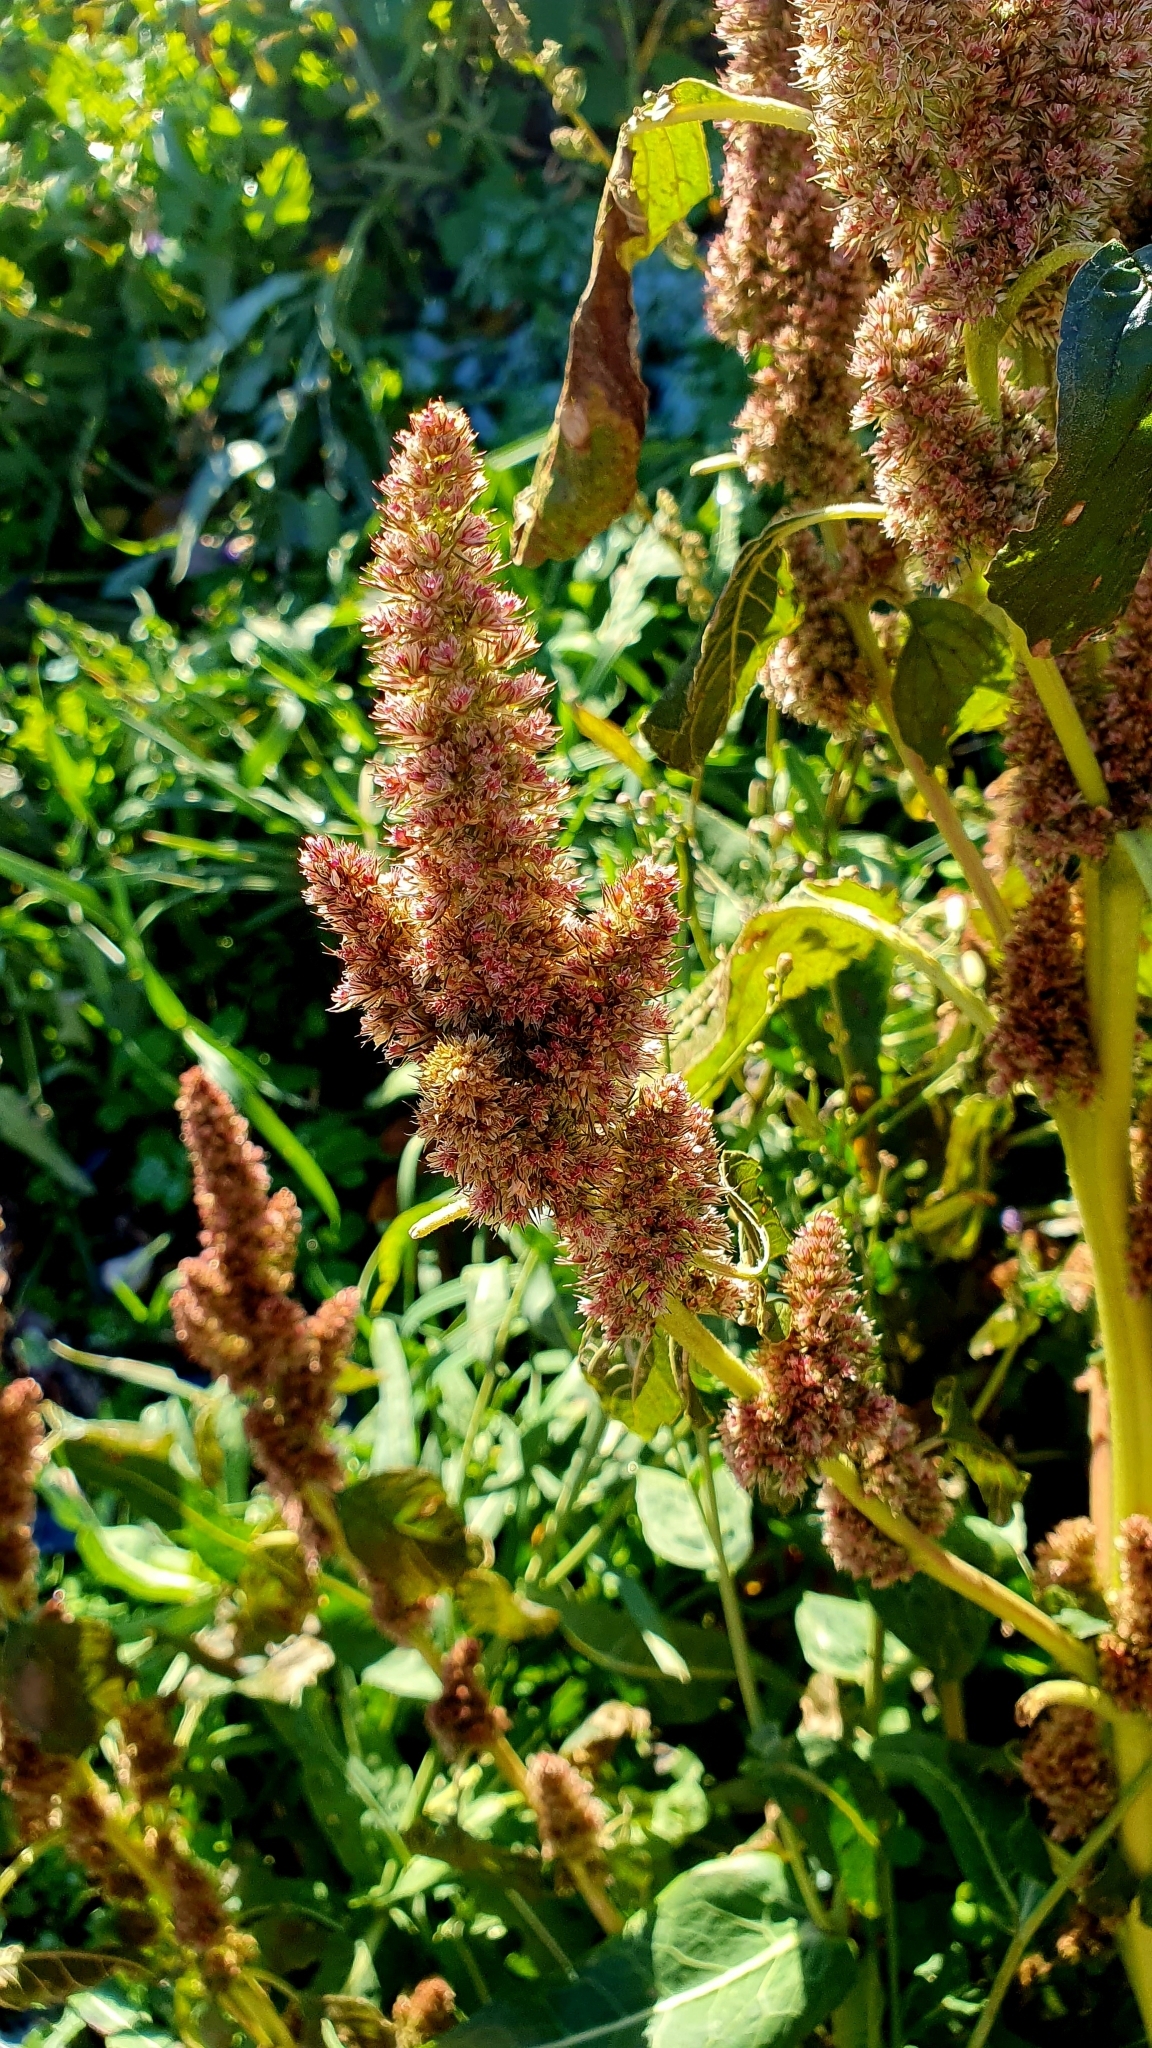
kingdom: Plantae
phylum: Tracheophyta
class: Magnoliopsida
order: Caryophyllales
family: Amaranthaceae
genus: Amaranthus
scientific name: Amaranthus retroflexus
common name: Redroot amaranth
